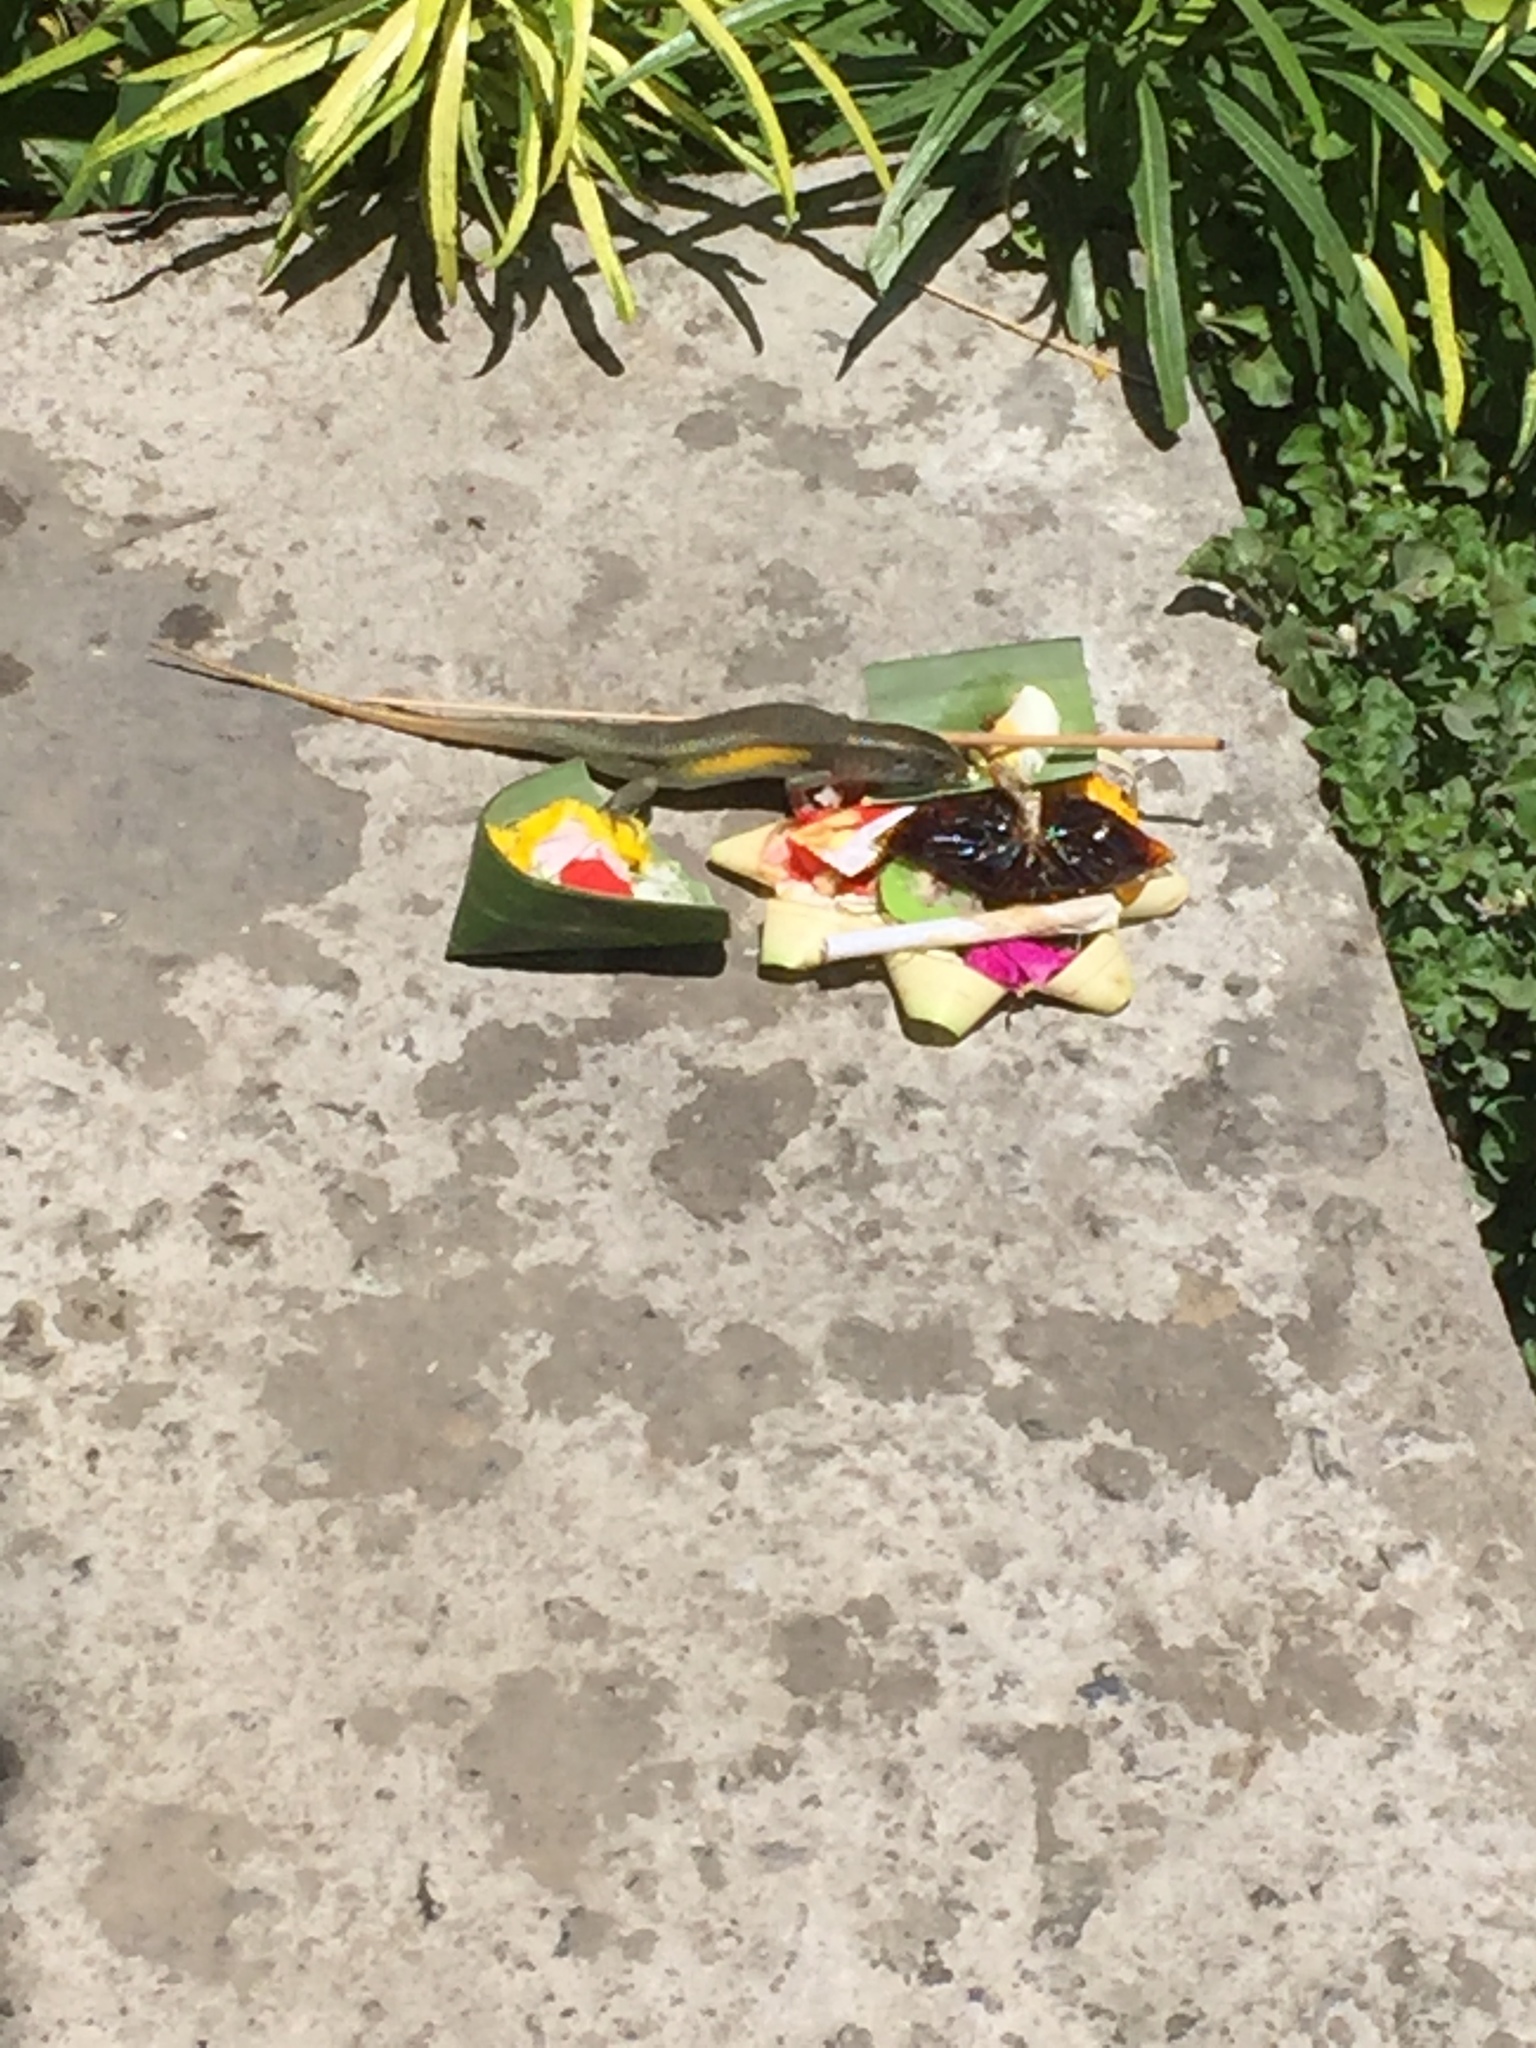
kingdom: Animalia
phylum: Chordata
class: Squamata
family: Scincidae
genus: Eutropis
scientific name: Eutropis multifasciata
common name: Common mabuya
